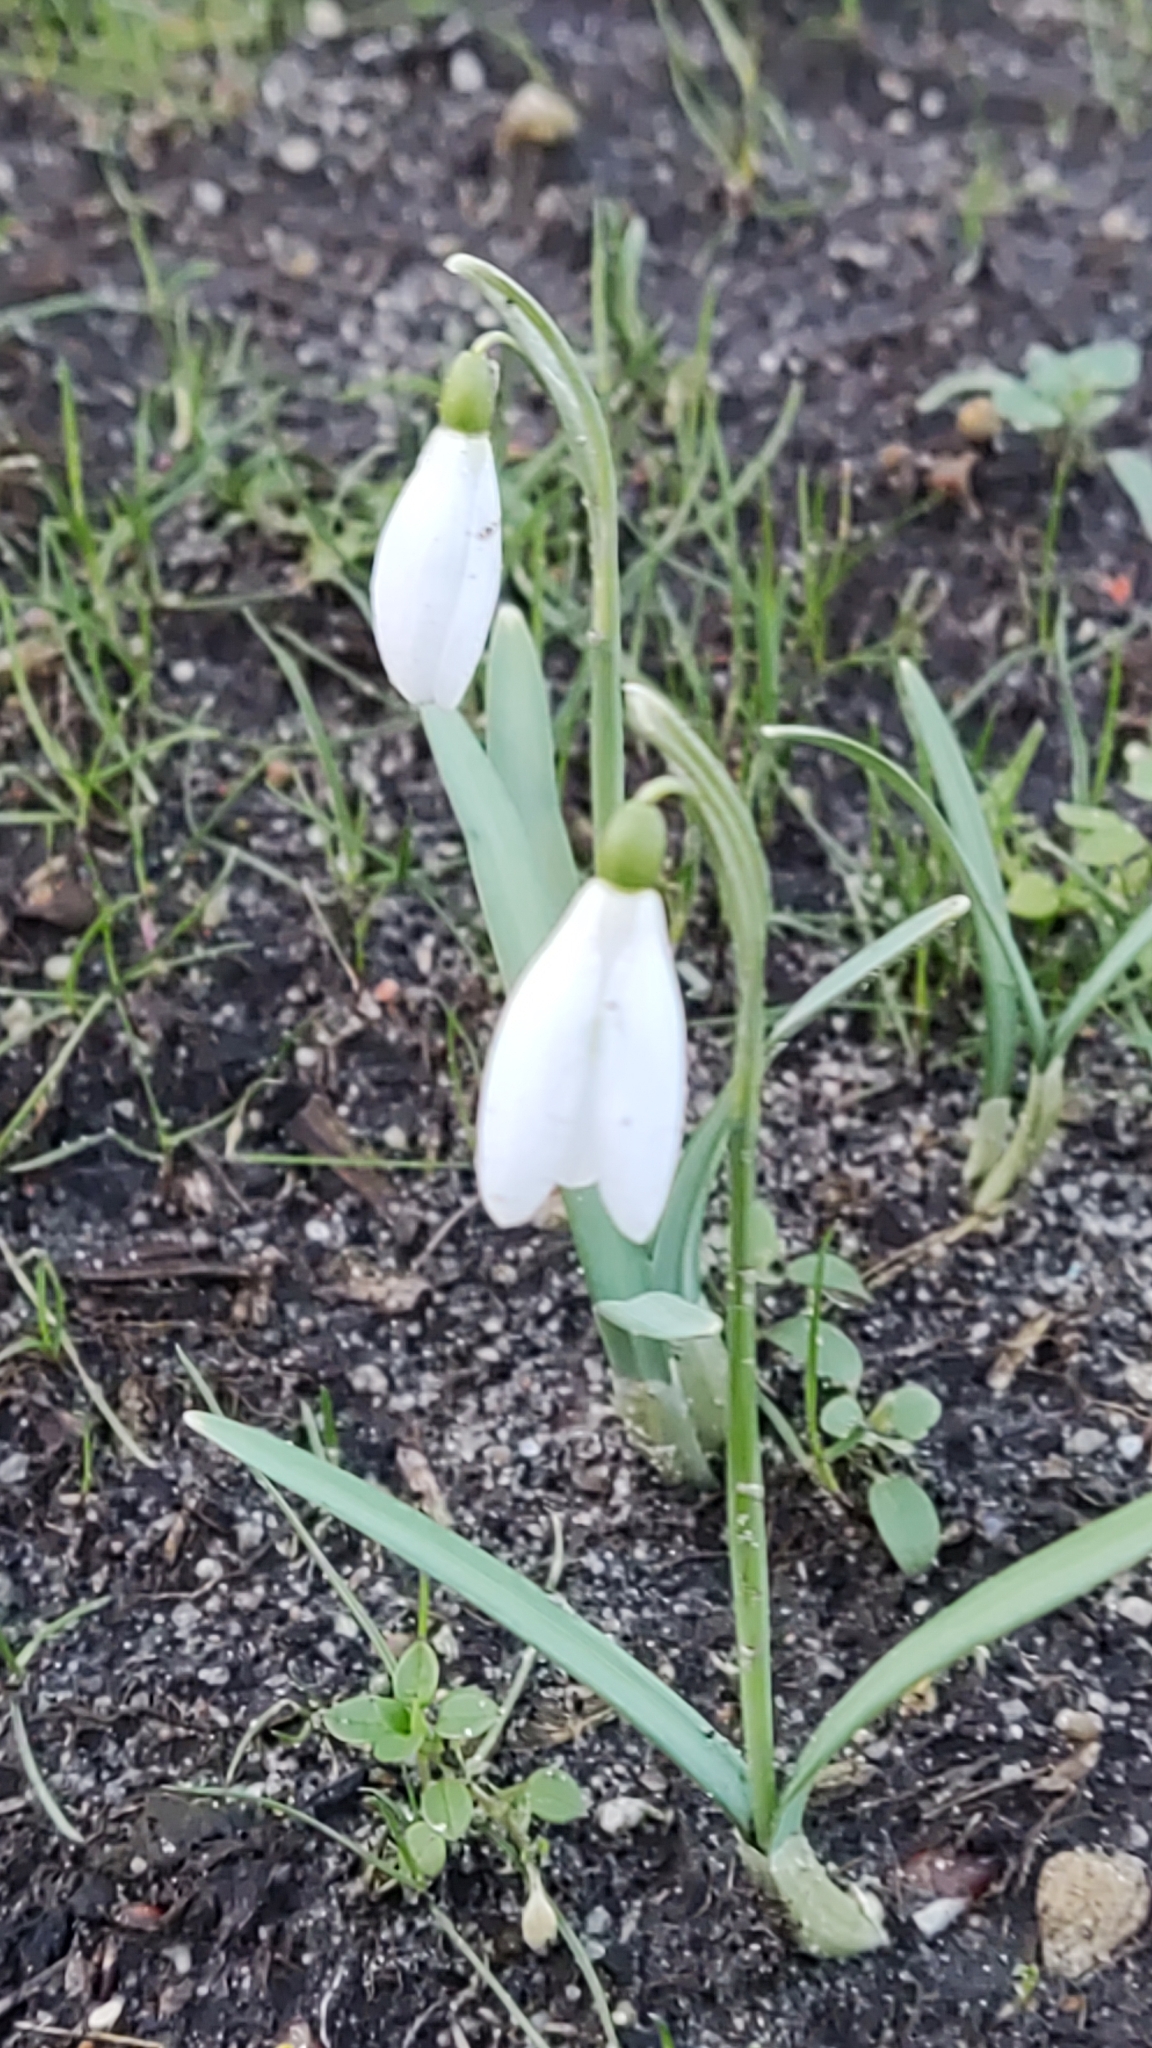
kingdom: Plantae
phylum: Tracheophyta
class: Liliopsida
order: Asparagales
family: Amaryllidaceae
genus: Galanthus
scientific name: Galanthus nivalis
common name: Snowdrop
